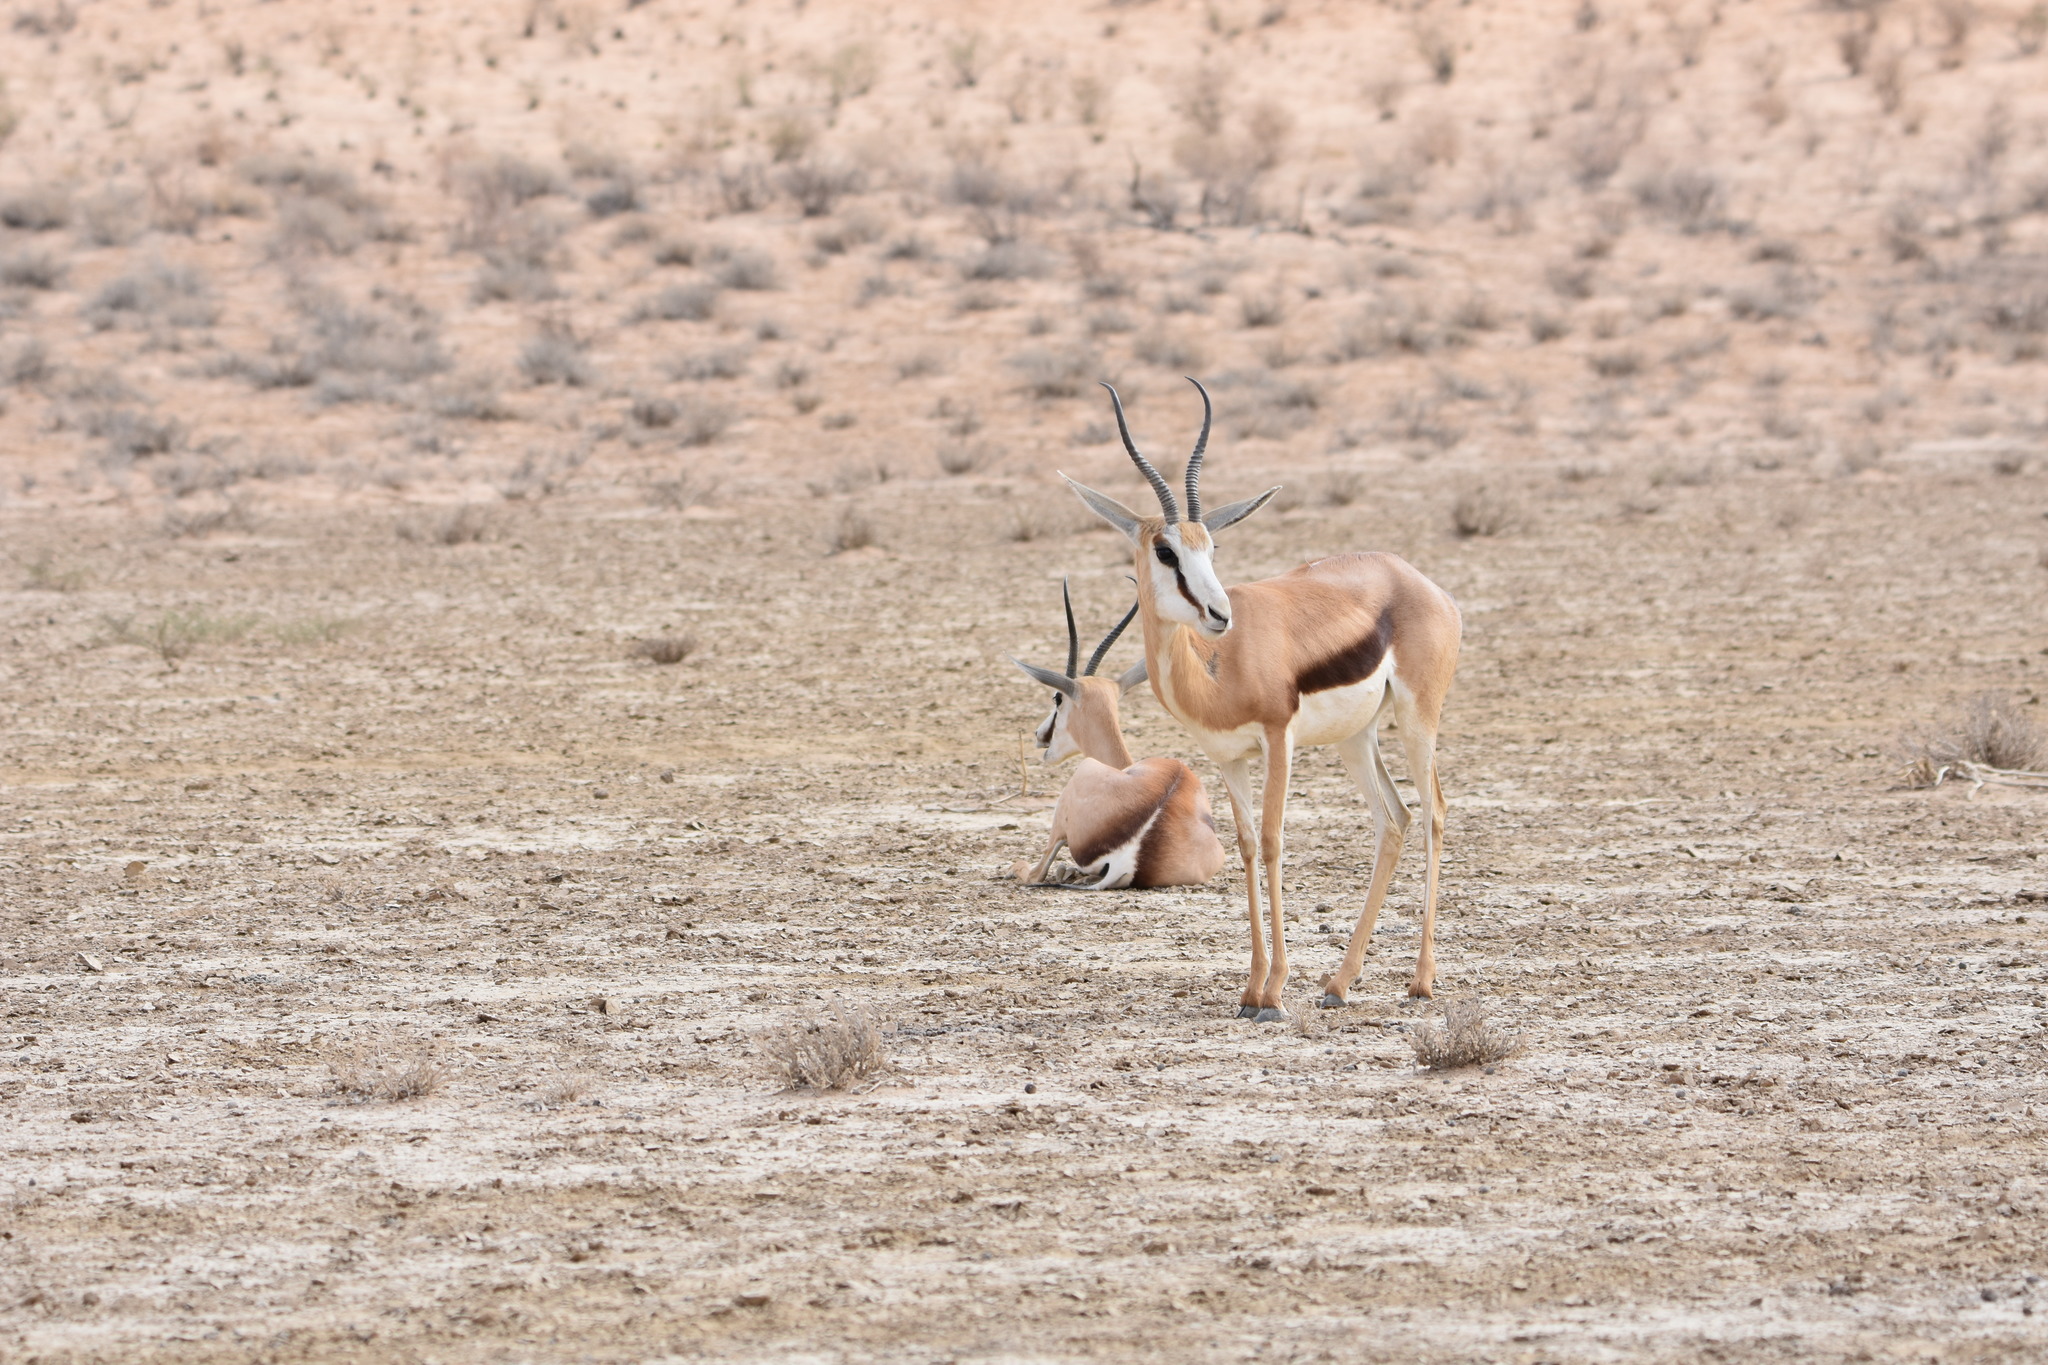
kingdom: Animalia
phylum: Chordata
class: Mammalia
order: Artiodactyla
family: Bovidae
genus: Antidorcas
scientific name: Antidorcas marsupialis
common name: Springbok
